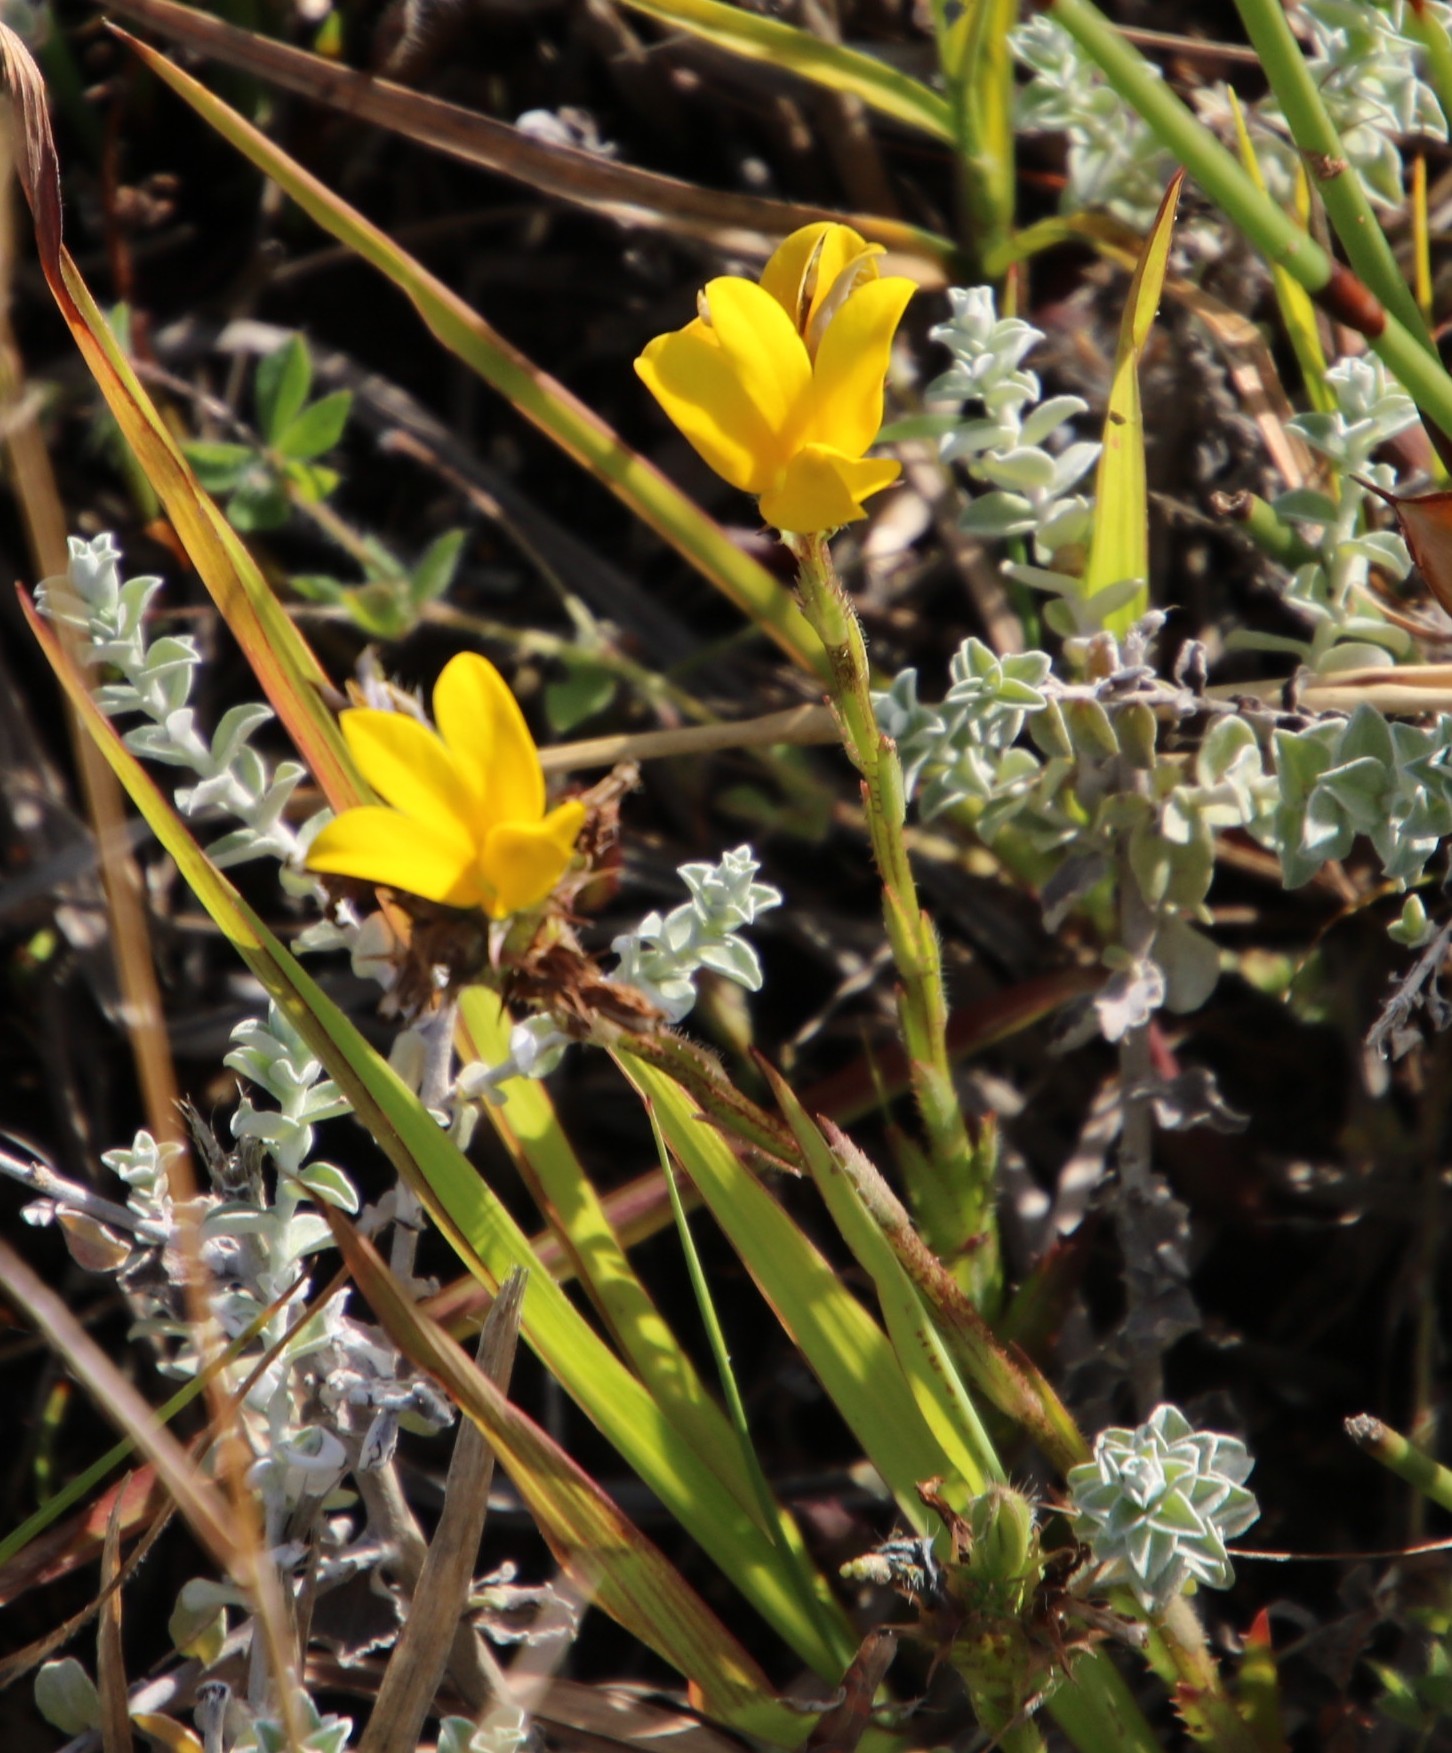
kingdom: Plantae
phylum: Tracheophyta
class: Magnoliopsida
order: Asterales
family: Campanulaceae
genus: Monopsis
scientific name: Monopsis lutea
